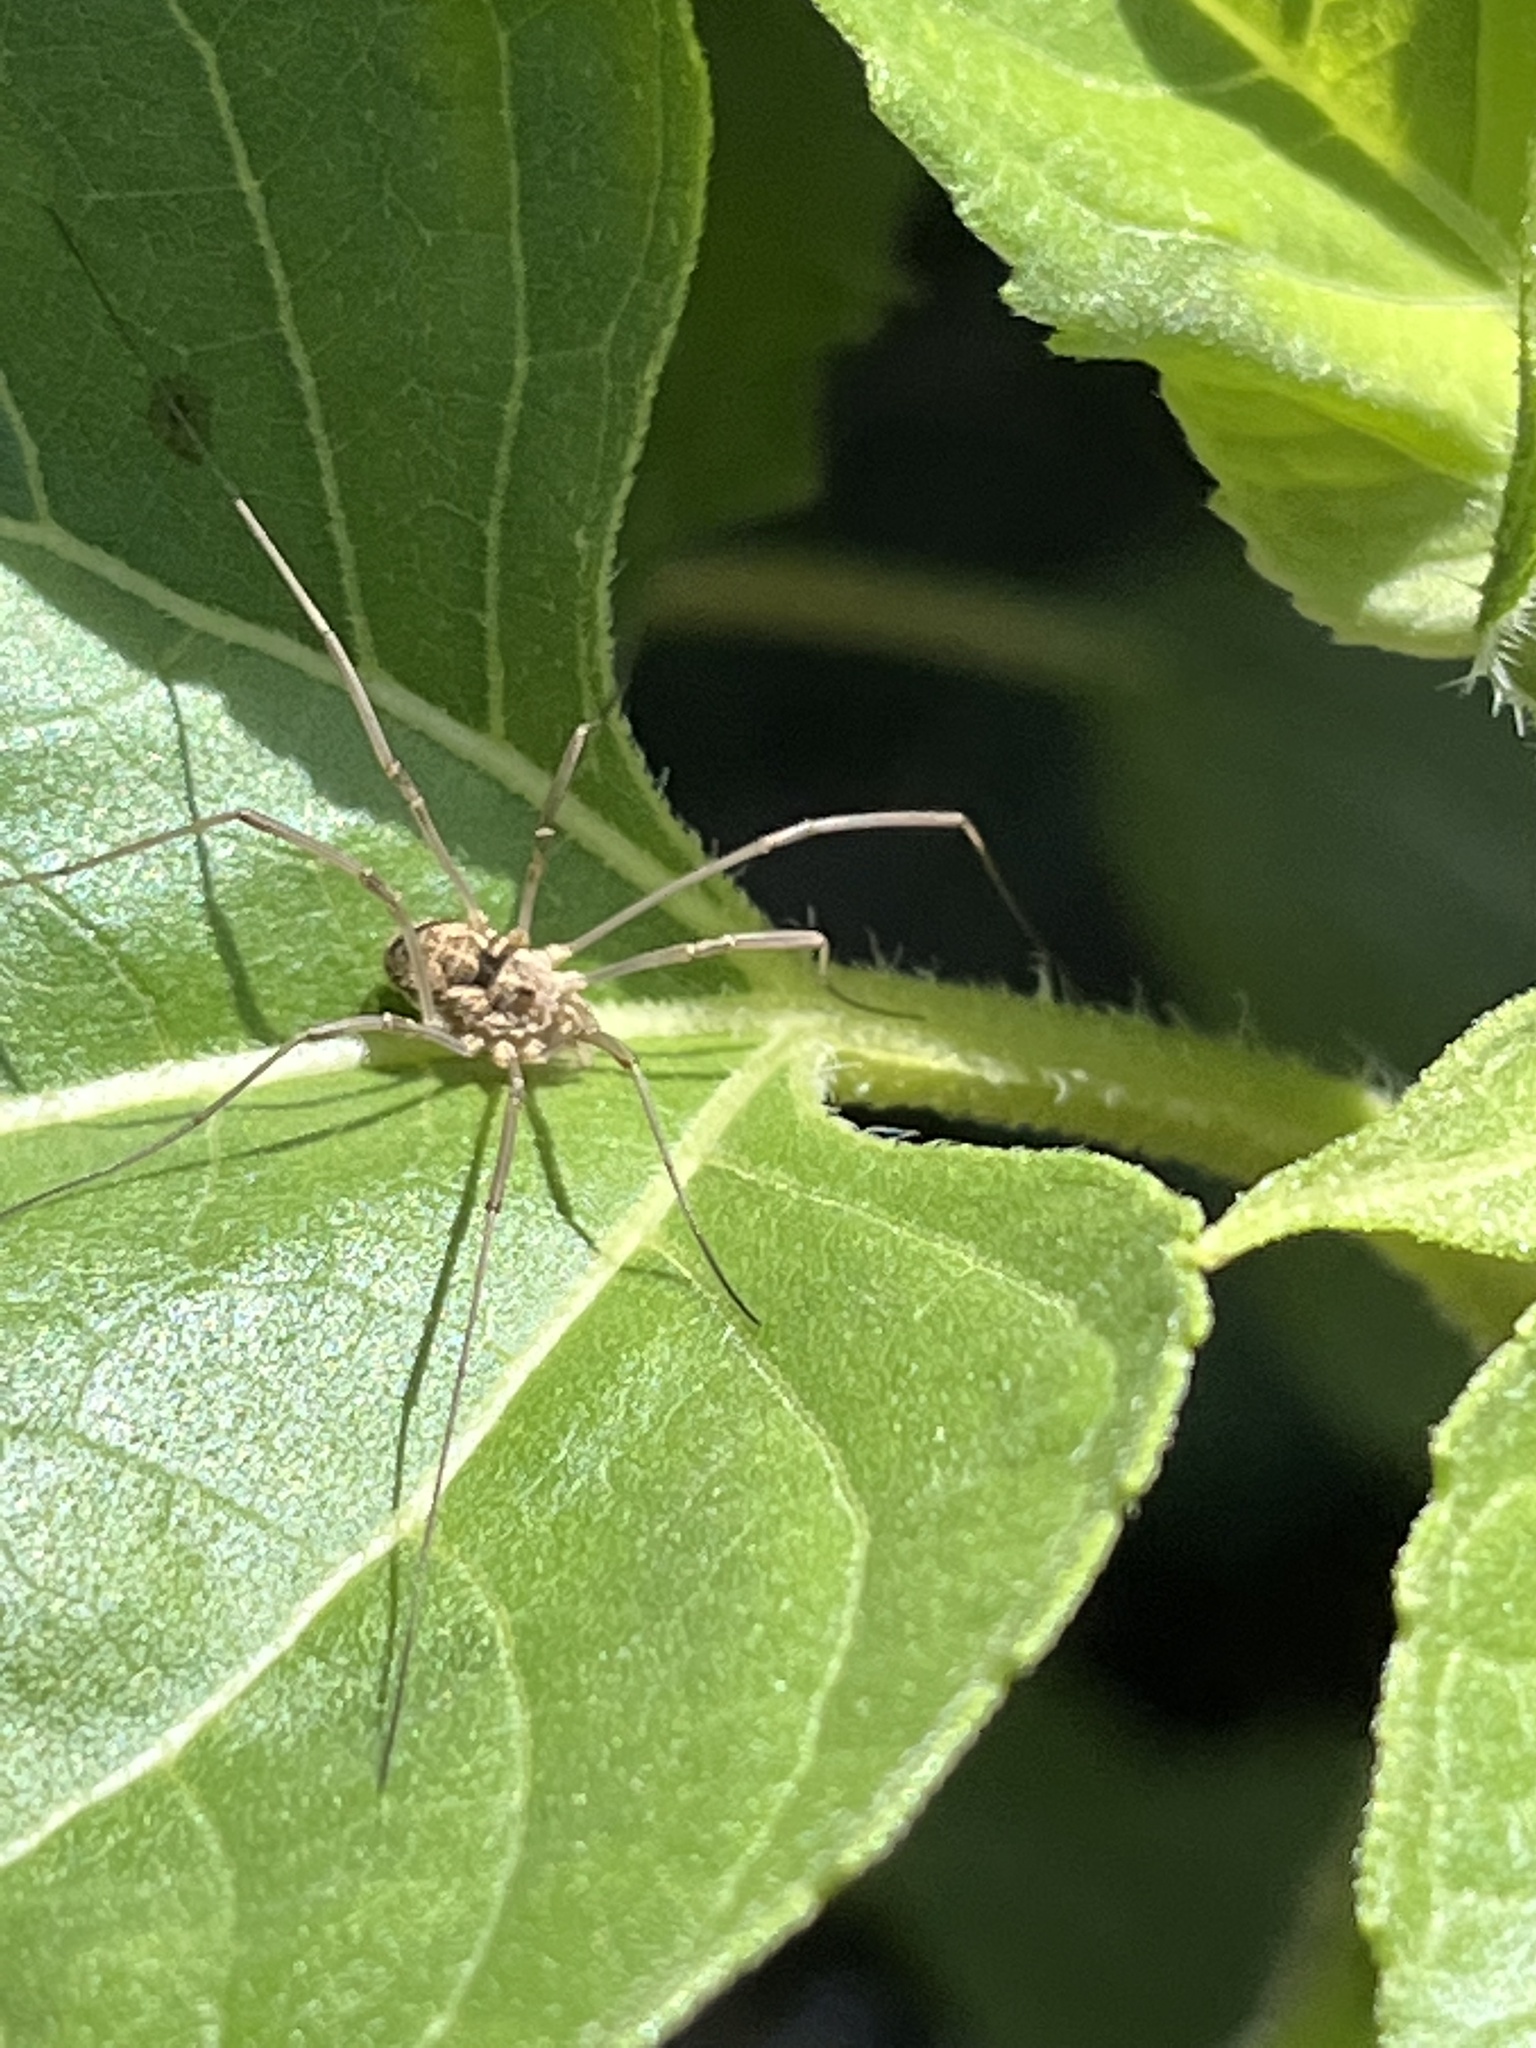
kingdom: Animalia
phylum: Arthropoda
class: Arachnida
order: Opiliones
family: Phalangiidae
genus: Phalangium
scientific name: Phalangium opilio
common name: Daddy longleg
